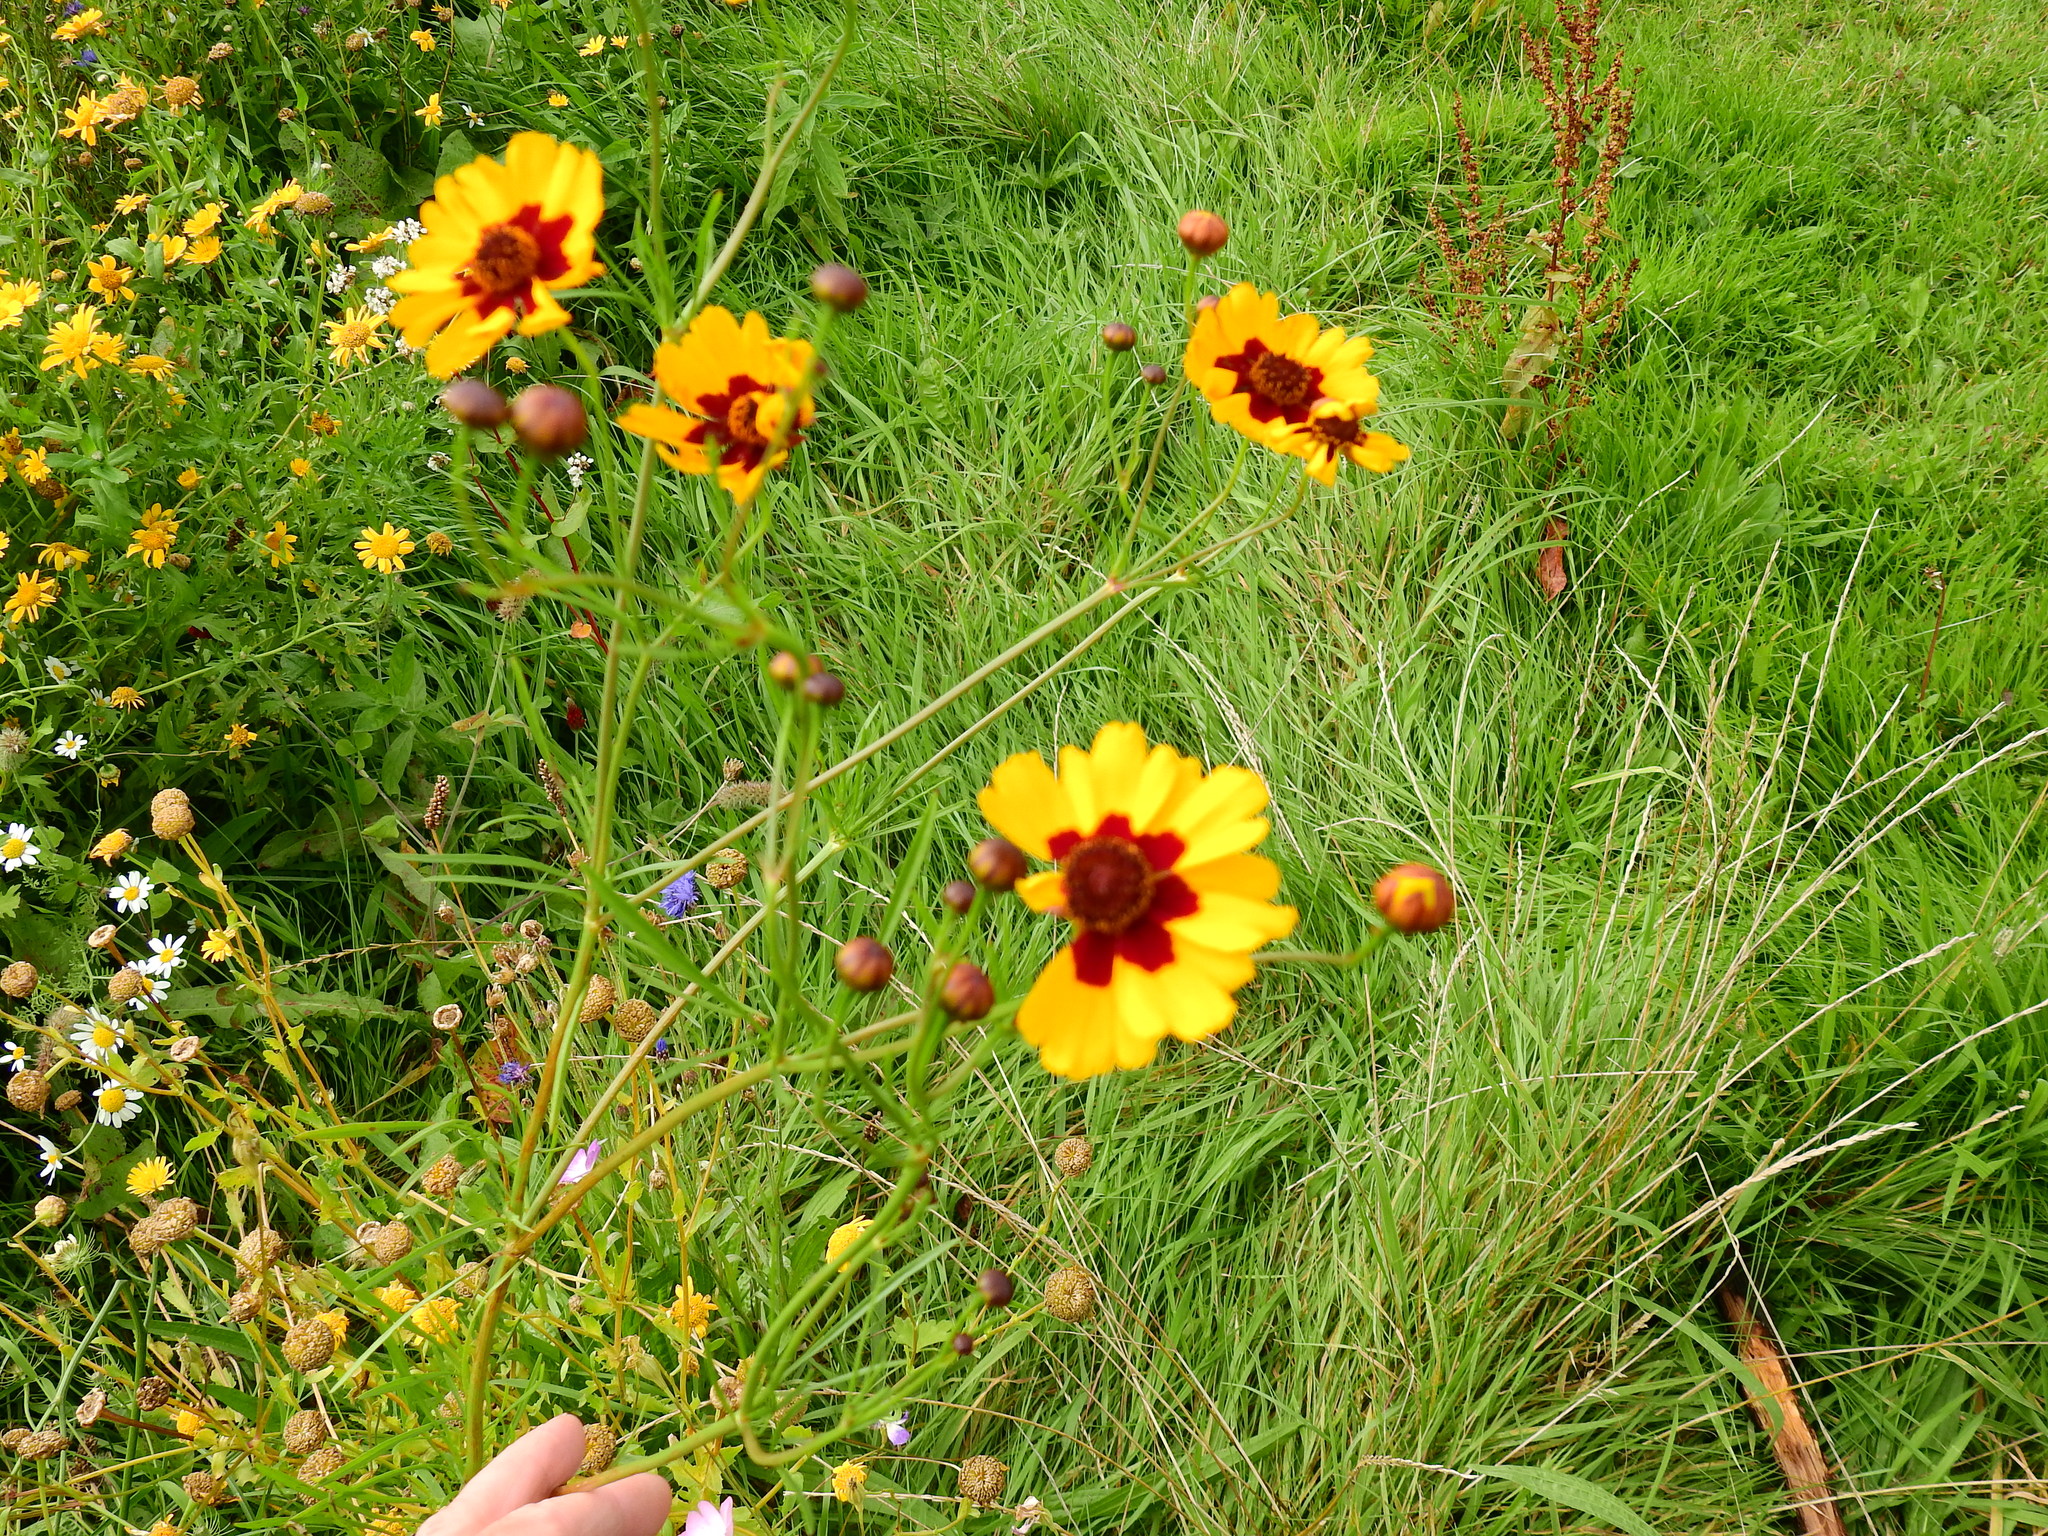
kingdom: Plantae
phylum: Tracheophyta
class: Magnoliopsida
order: Asterales
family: Asteraceae
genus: Coreopsis
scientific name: Coreopsis tinctoria
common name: Garden tickseed
